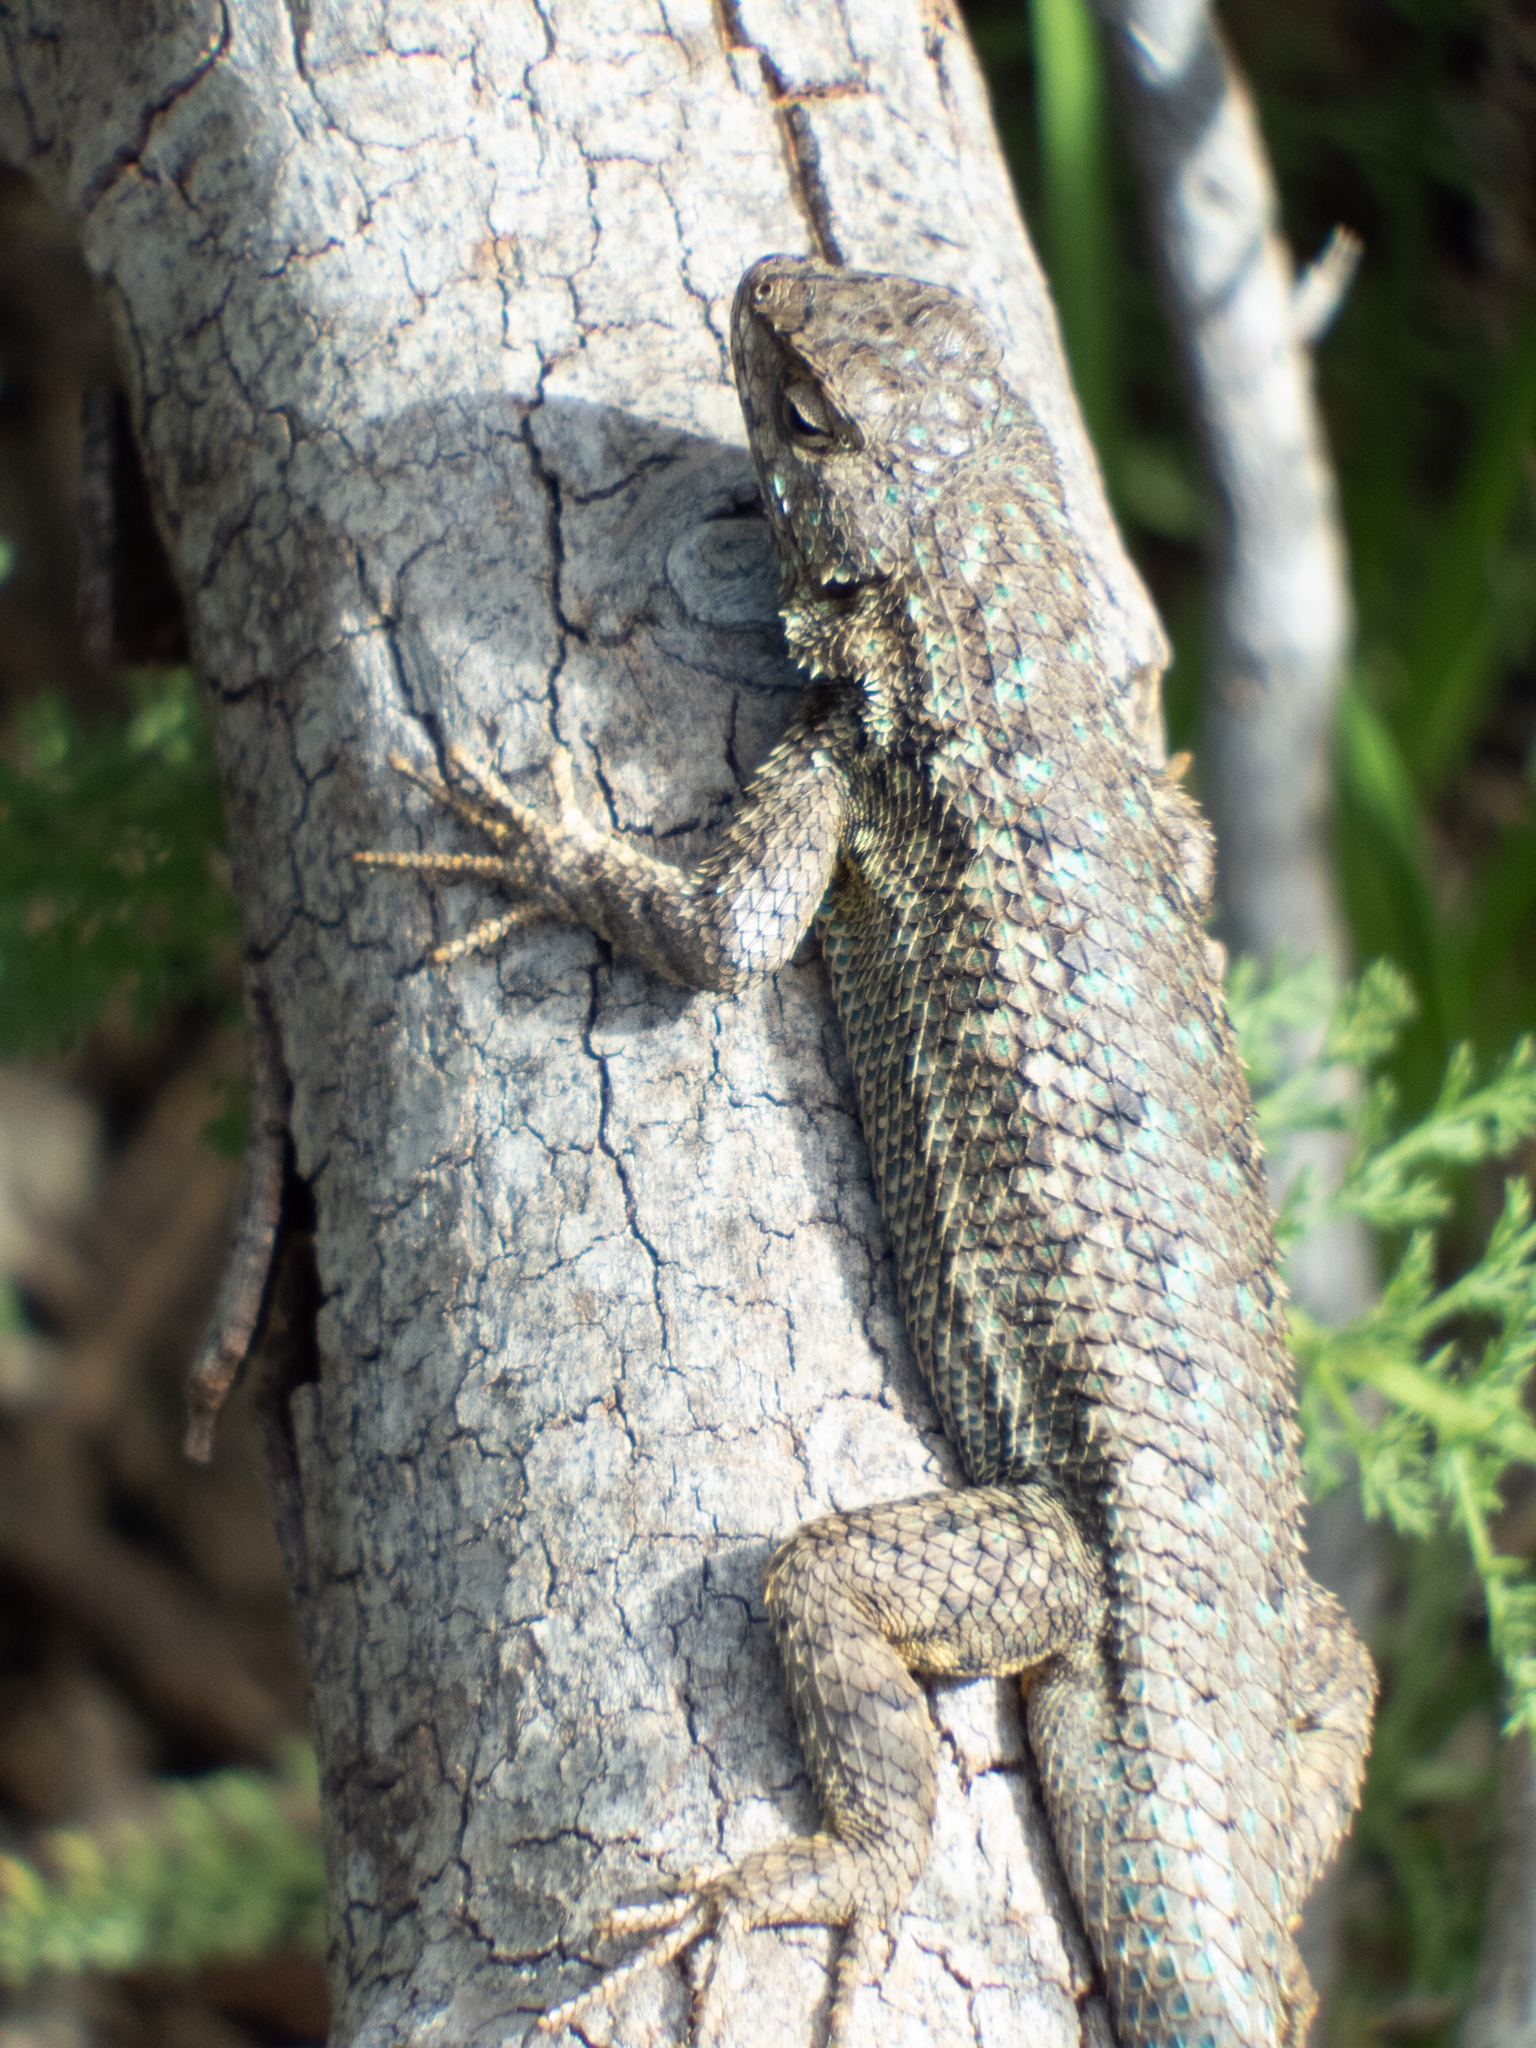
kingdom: Animalia
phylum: Chordata
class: Squamata
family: Phrynosomatidae
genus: Sceloporus
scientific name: Sceloporus occidentalis
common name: Western fence lizard
